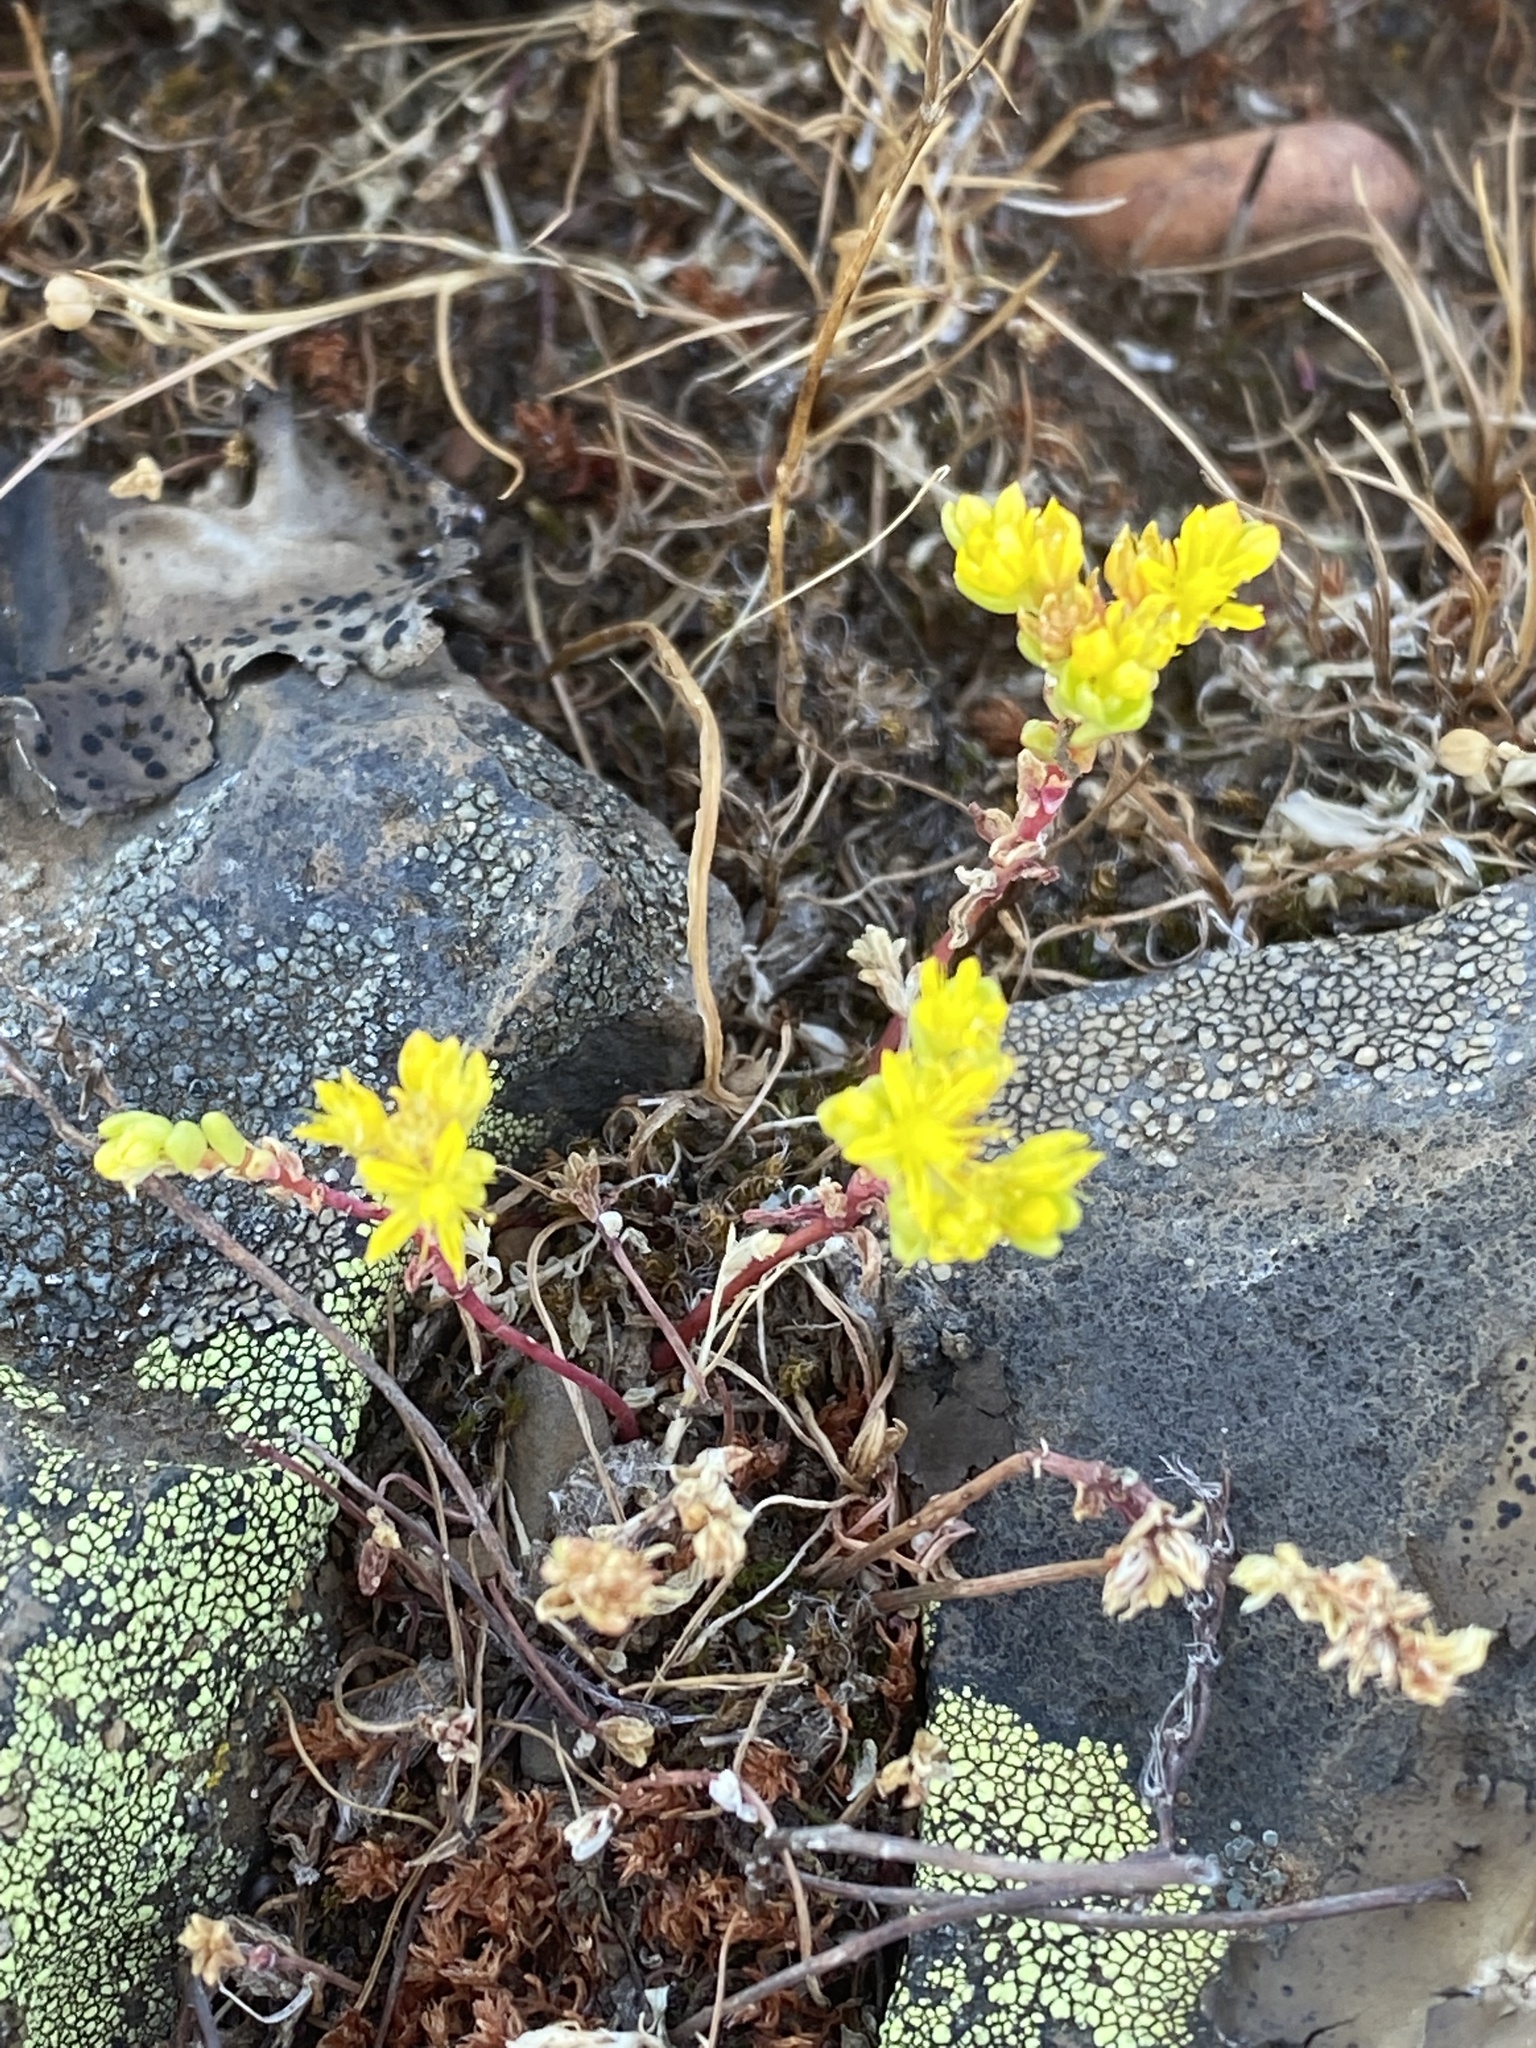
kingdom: Plantae
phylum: Tracheophyta
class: Magnoliopsida
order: Saxifragales
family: Crassulaceae
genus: Sedella
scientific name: Sedella pumila
